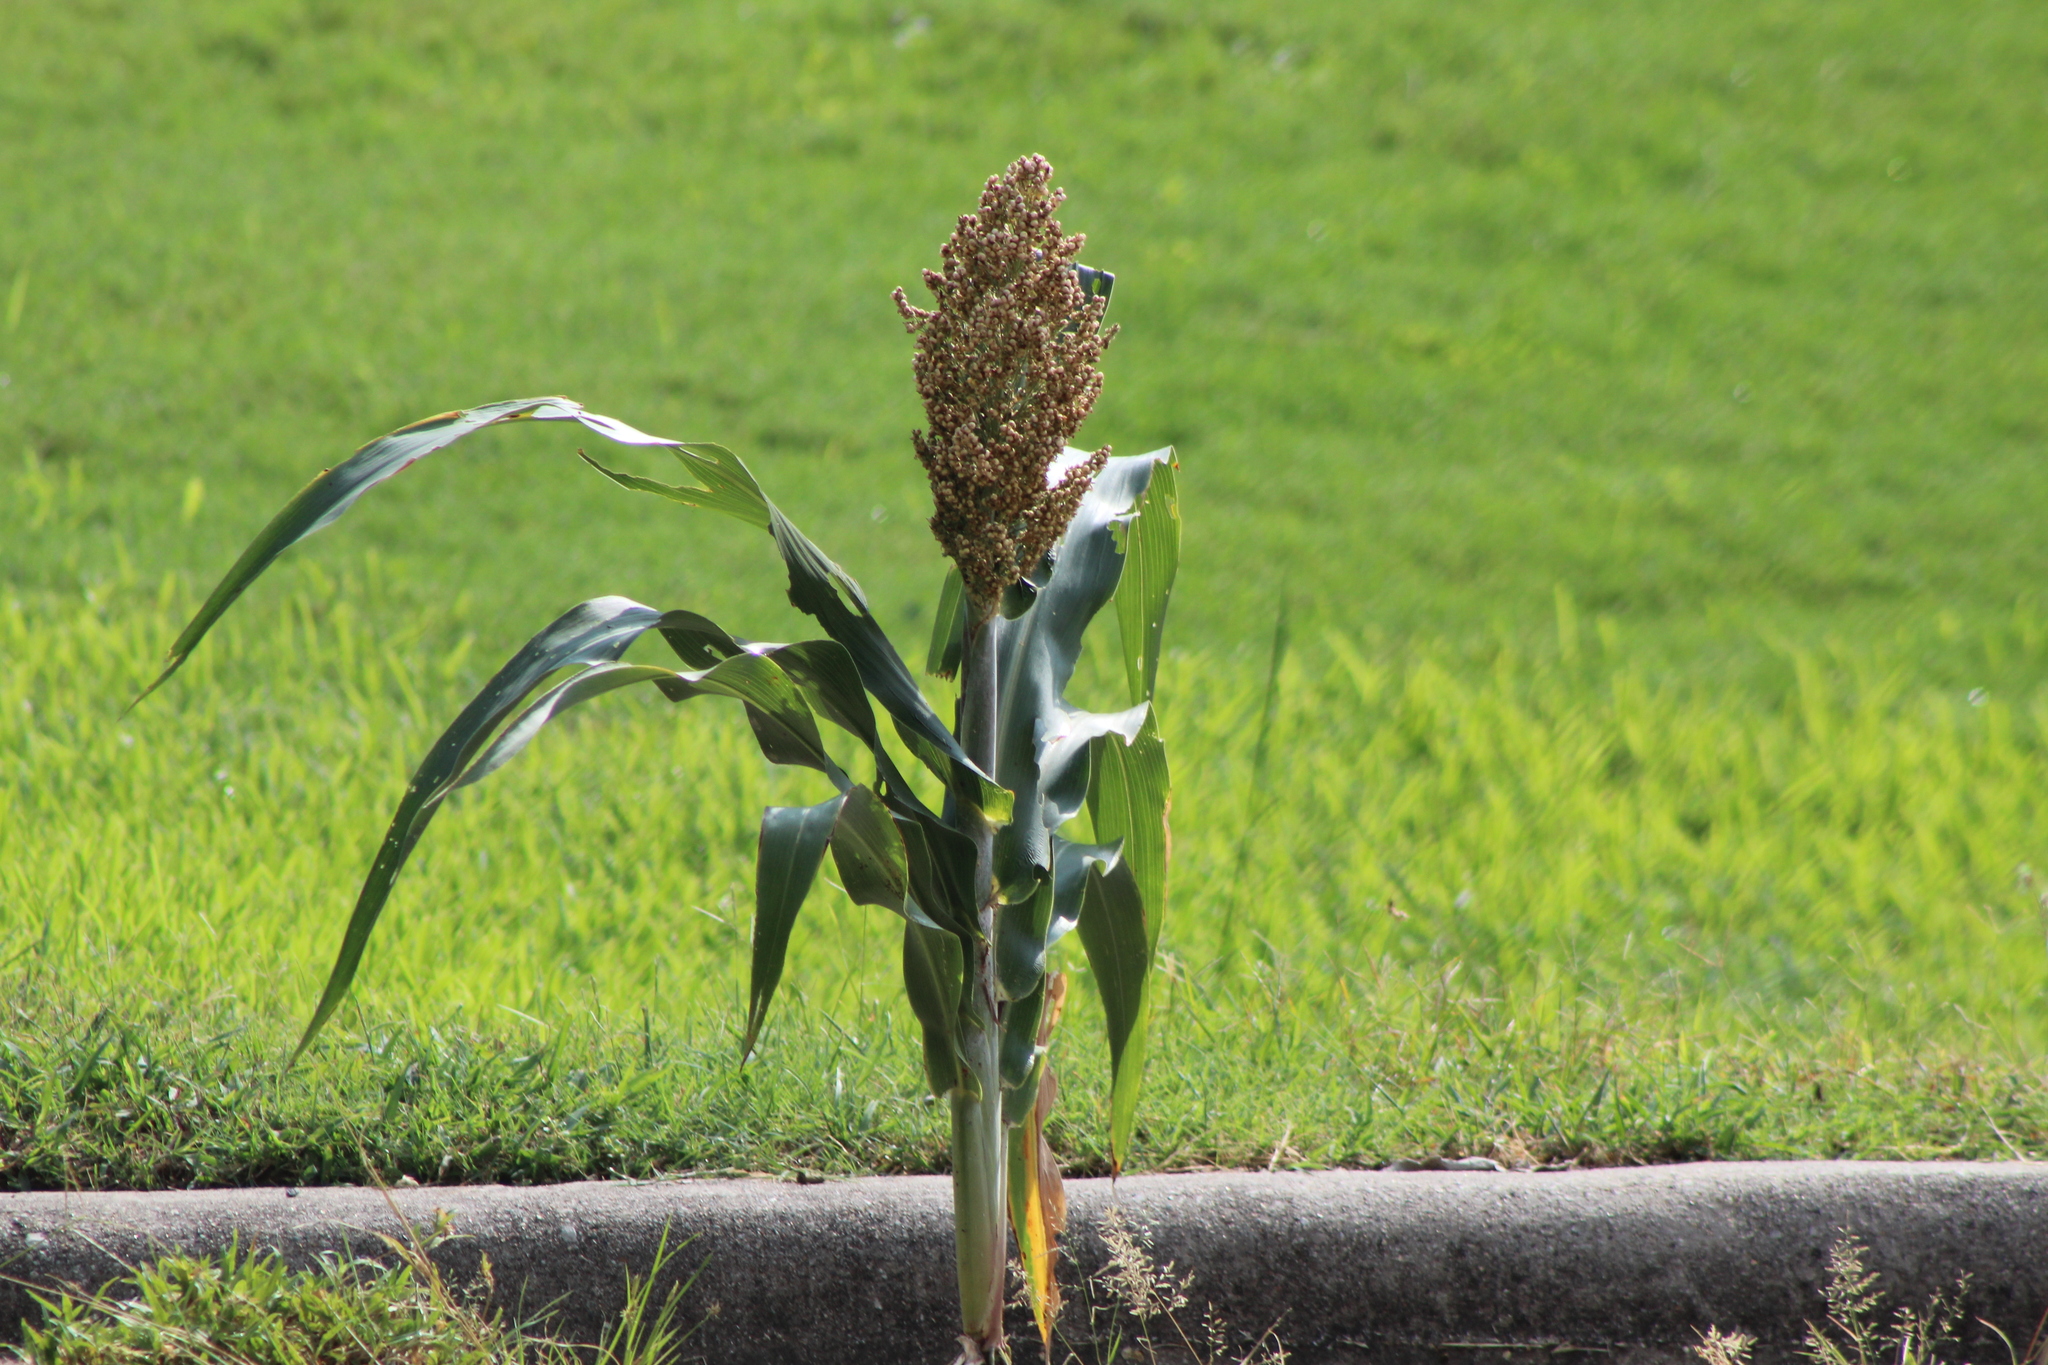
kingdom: Plantae
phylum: Tracheophyta
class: Liliopsida
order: Poales
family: Poaceae
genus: Sorghum
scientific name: Sorghum bicolor
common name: Sorghum
